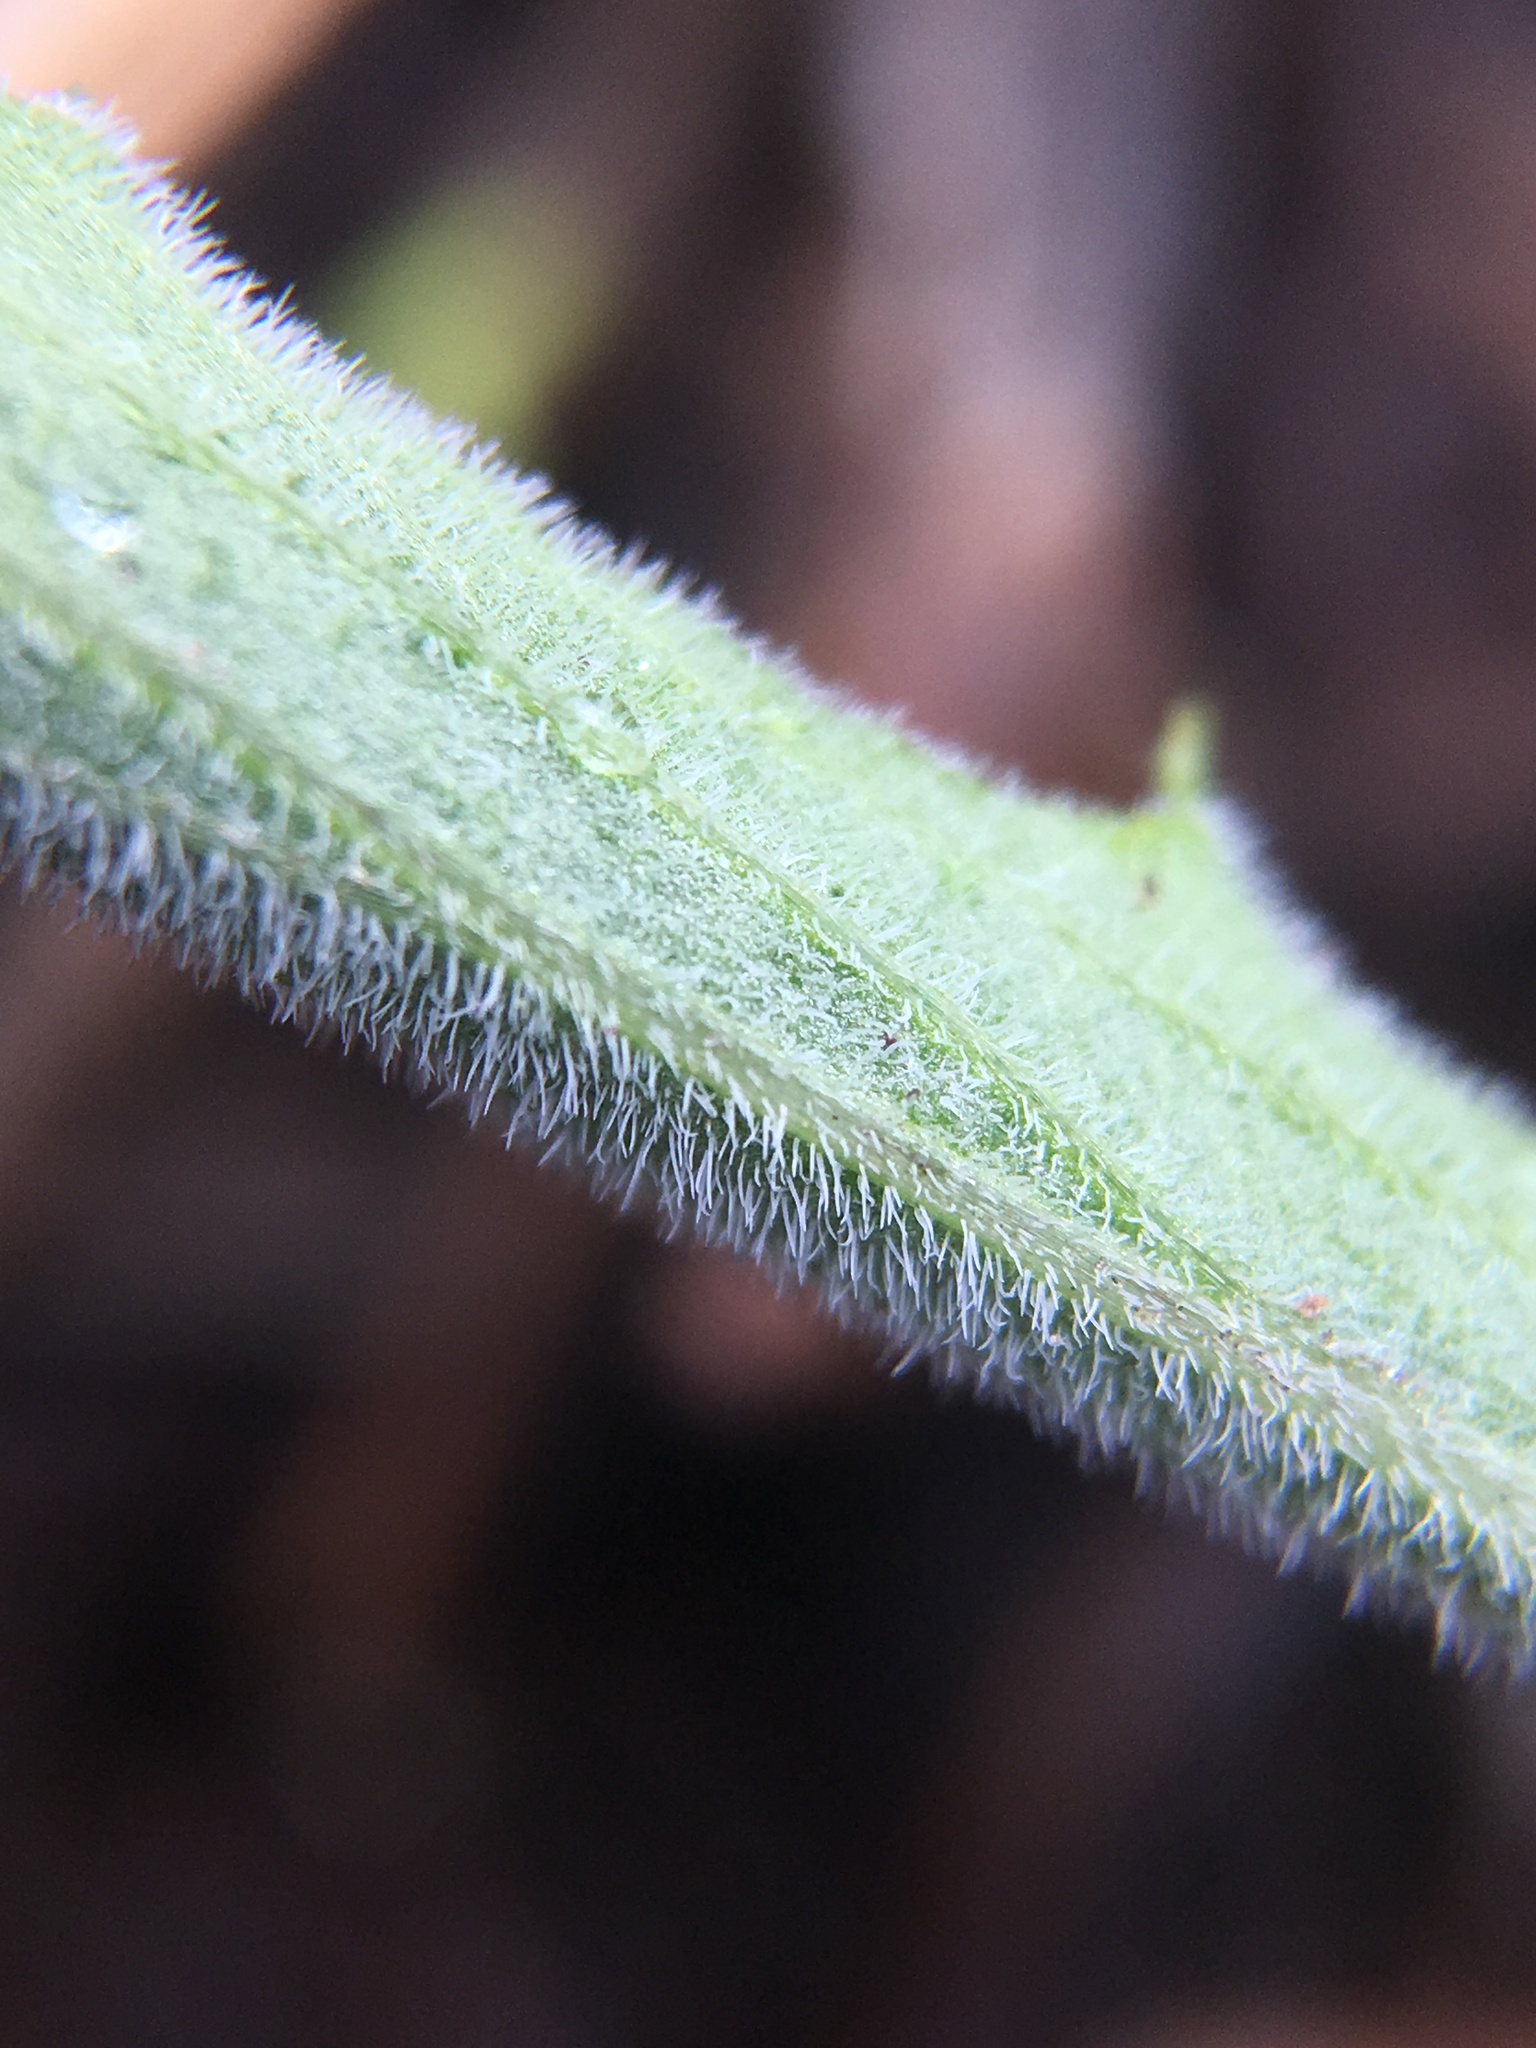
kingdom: Plantae
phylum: Tracheophyta
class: Magnoliopsida
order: Malpighiales
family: Violaceae
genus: Viola
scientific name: Viola pinetorum
